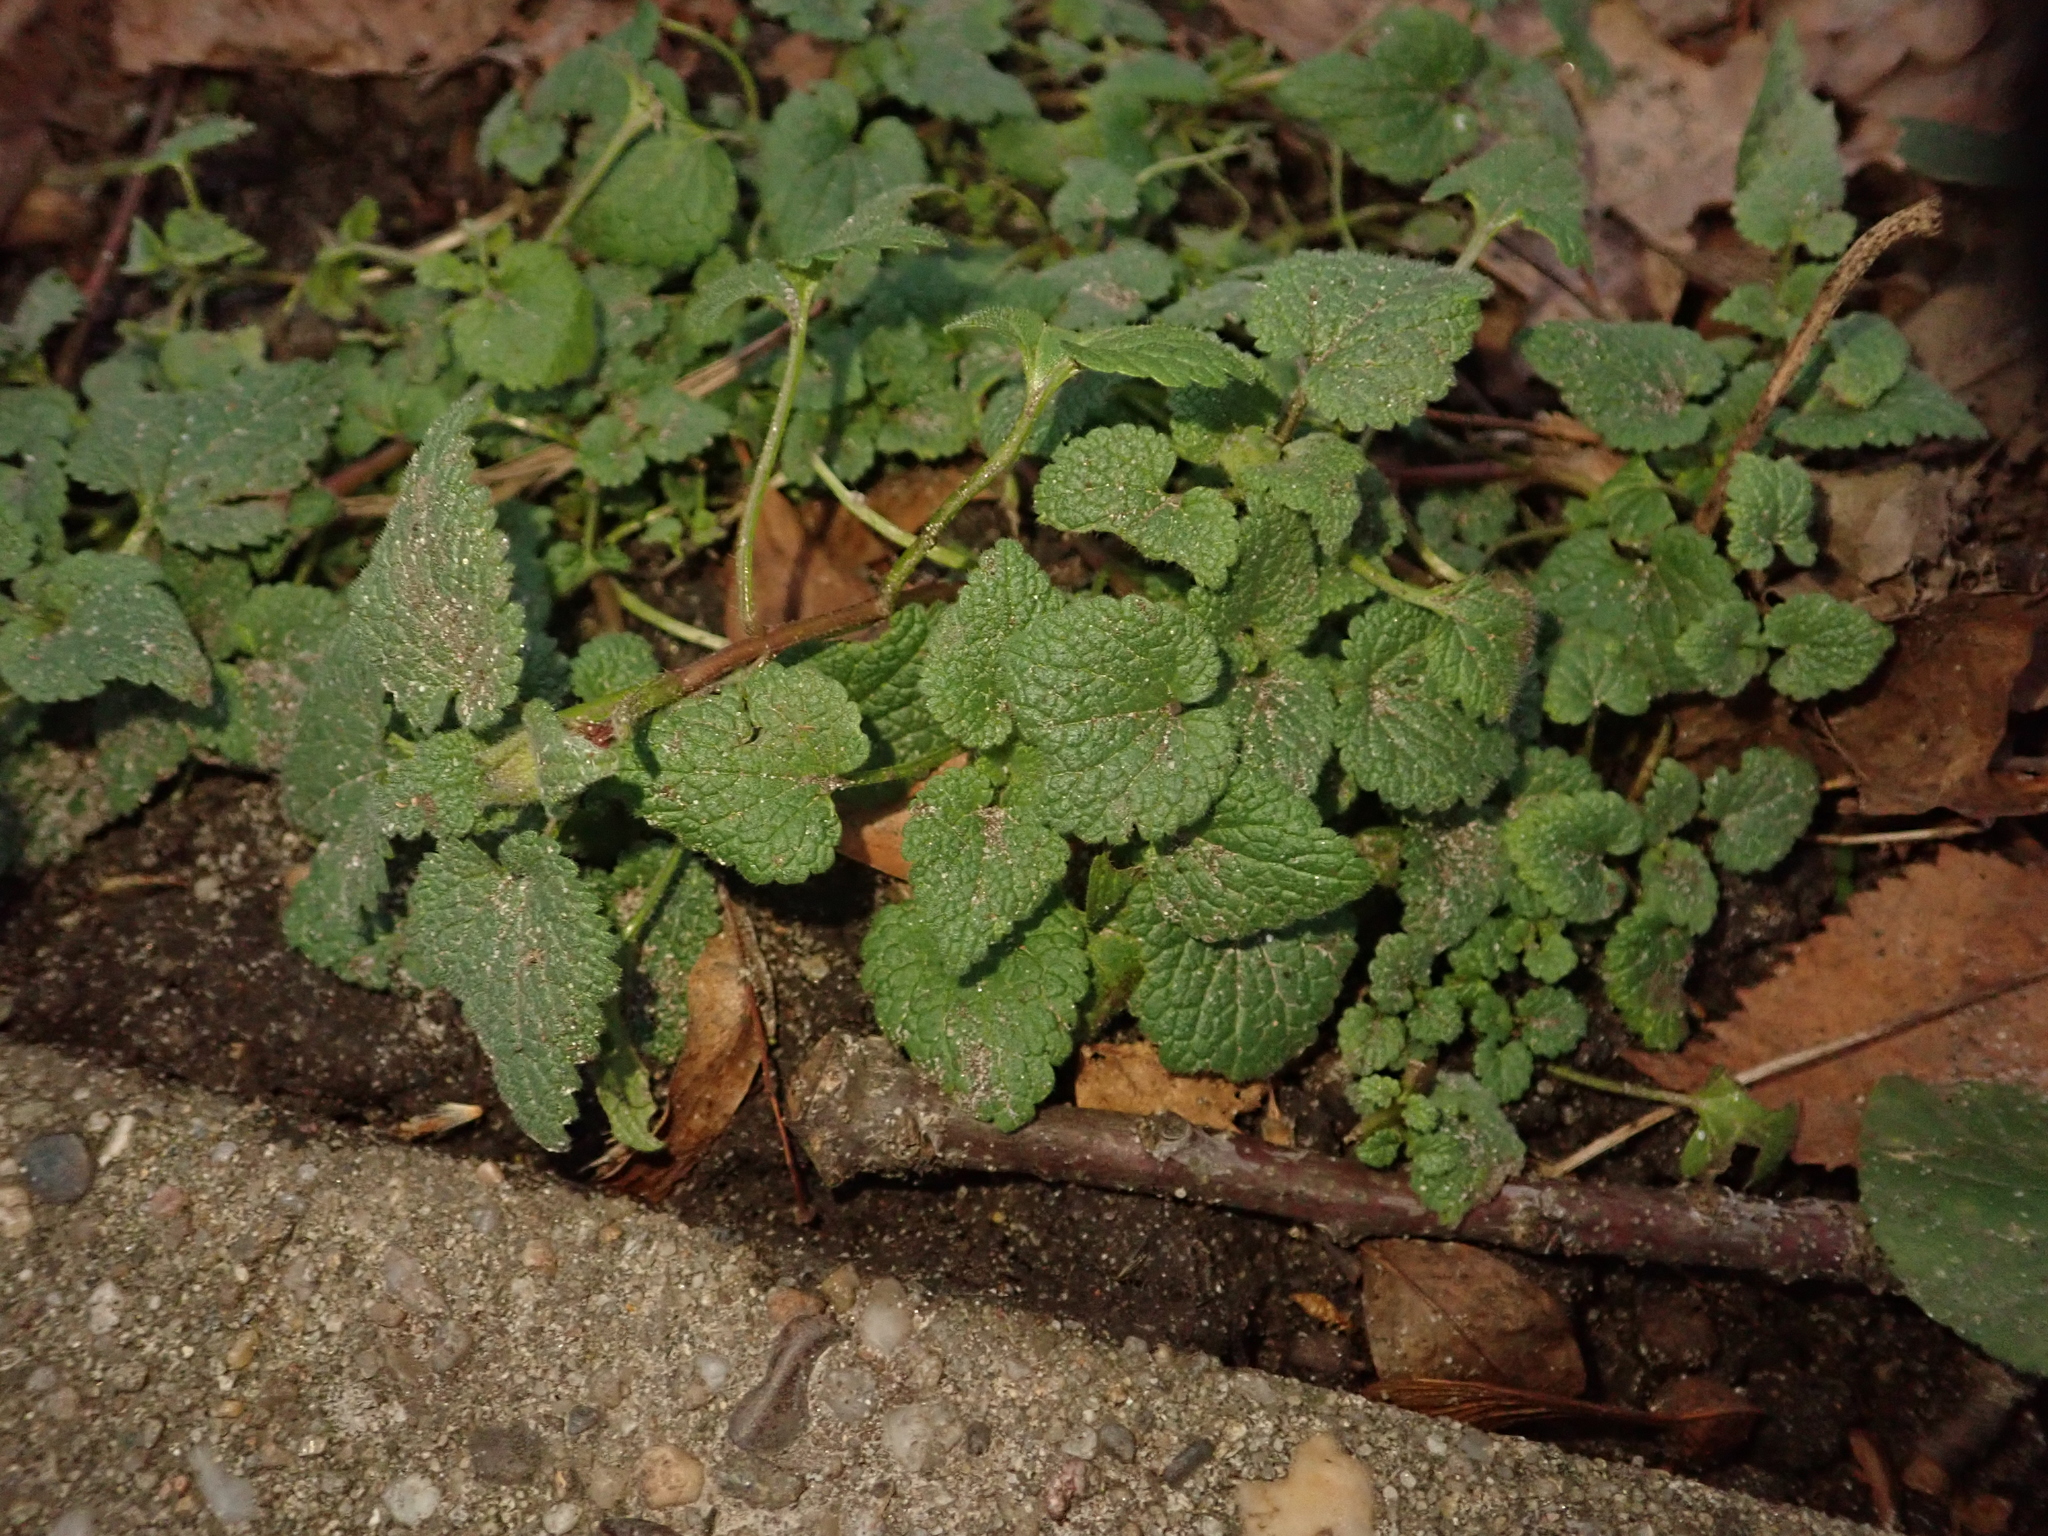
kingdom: Plantae
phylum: Tracheophyta
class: Magnoliopsida
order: Lamiales
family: Lamiaceae
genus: Lamium
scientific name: Lamium purpureum
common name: Red dead-nettle
